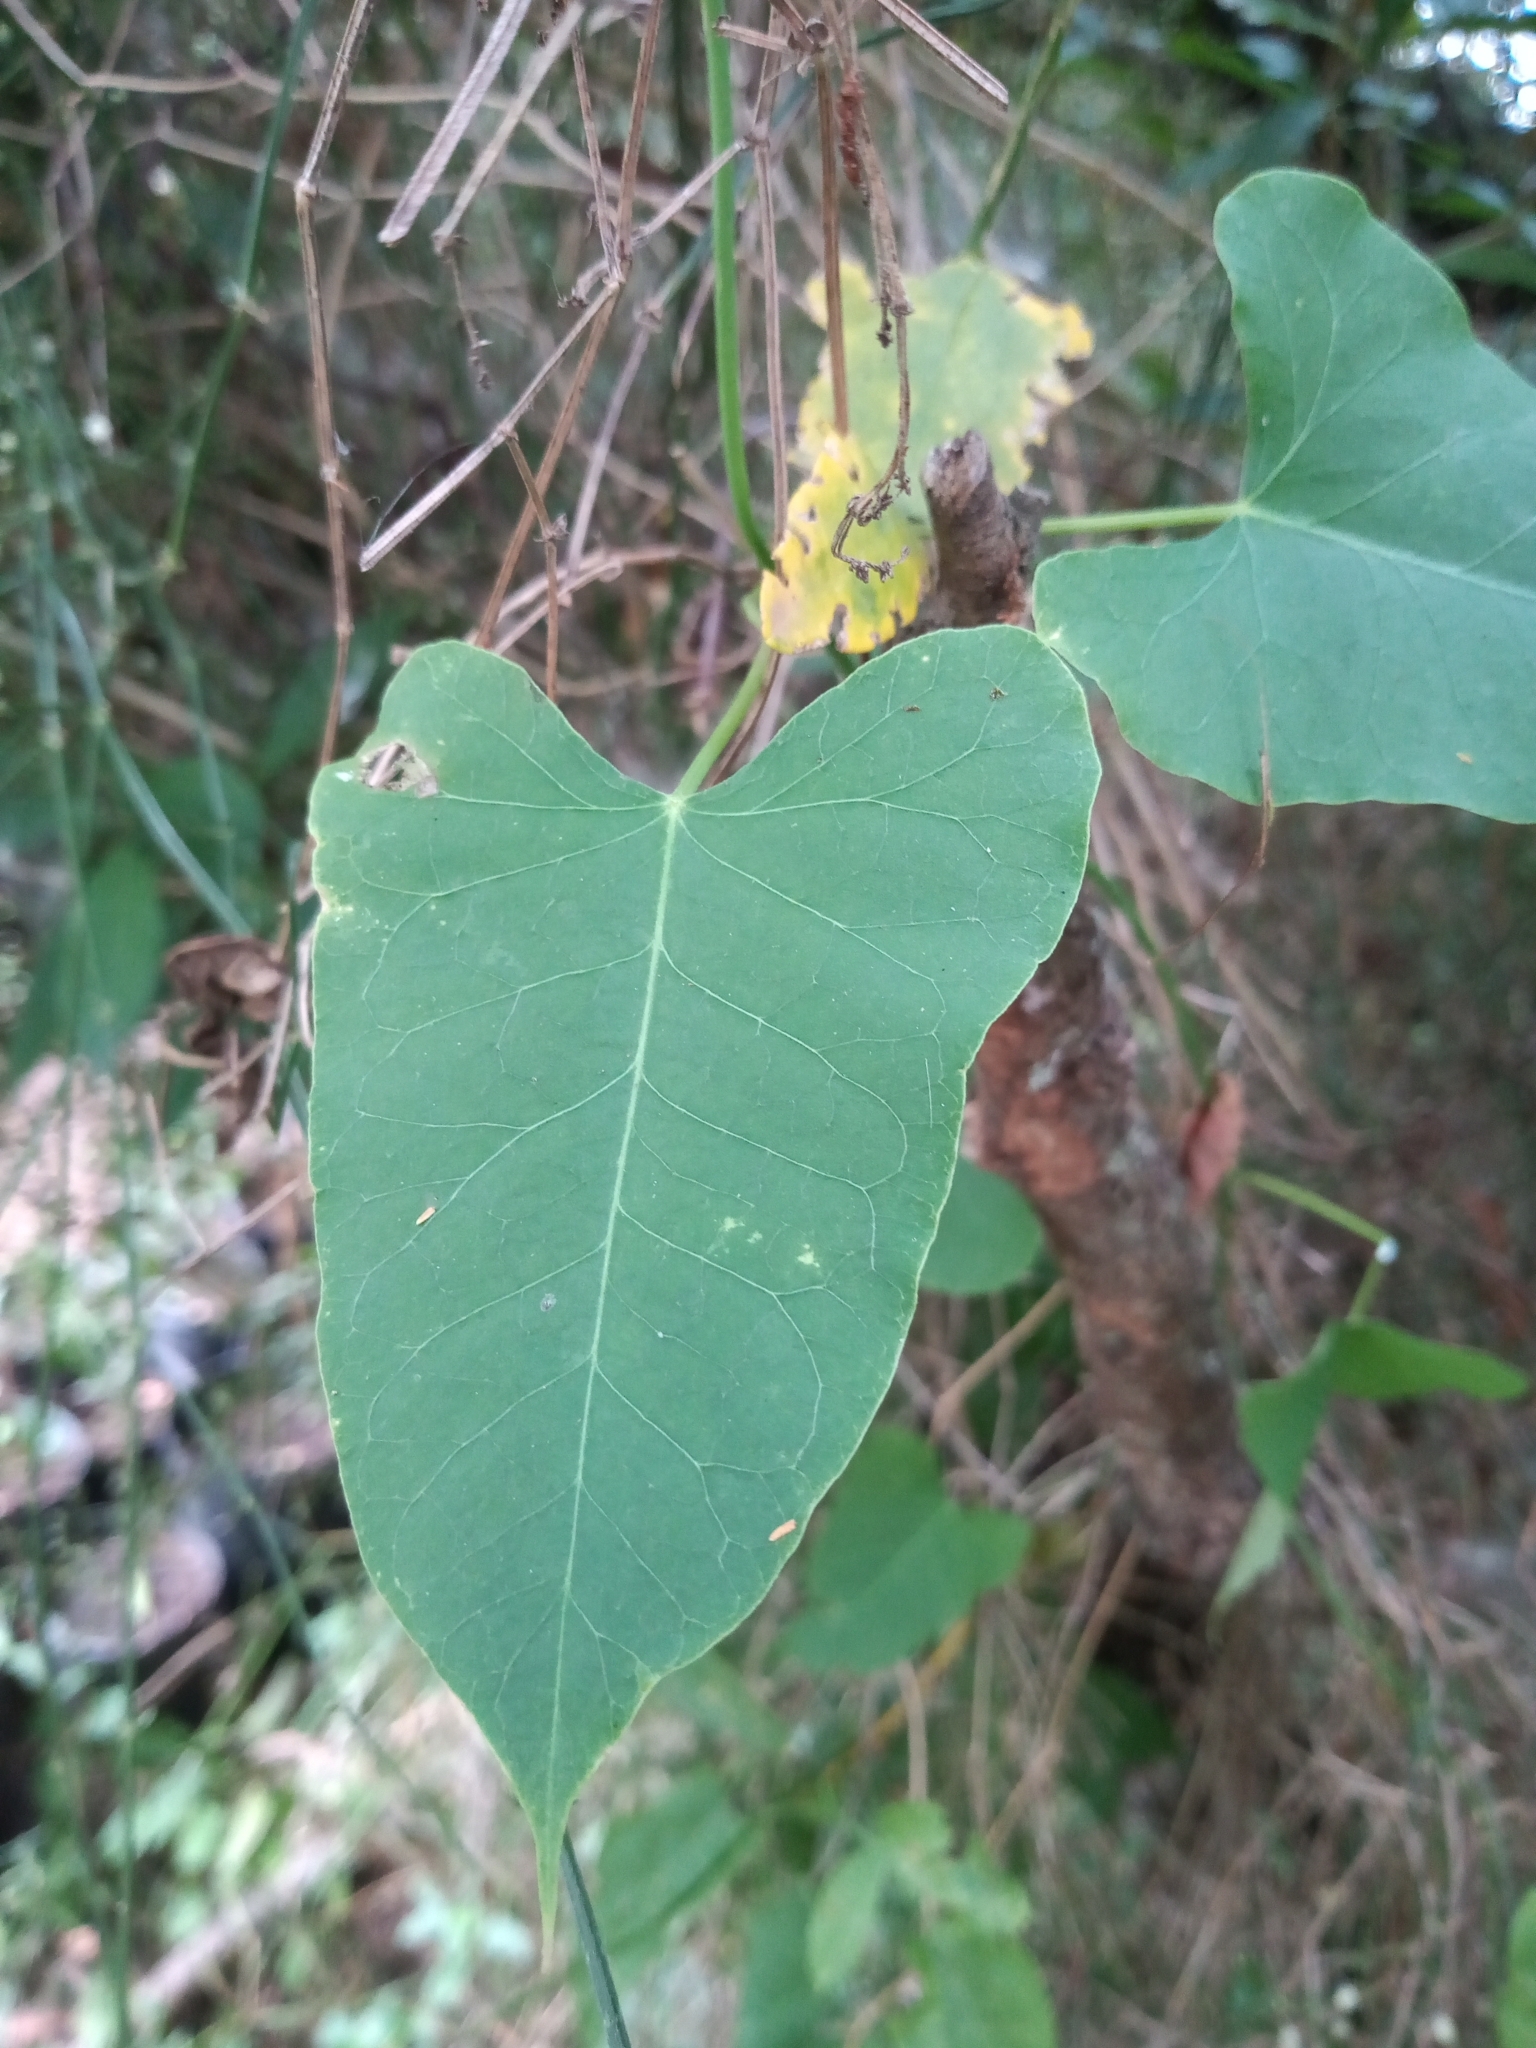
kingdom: Plantae
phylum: Tracheophyta
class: Magnoliopsida
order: Gentianales
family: Apocynaceae
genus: Araujia
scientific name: Araujia sericifera
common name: White bladderflower
